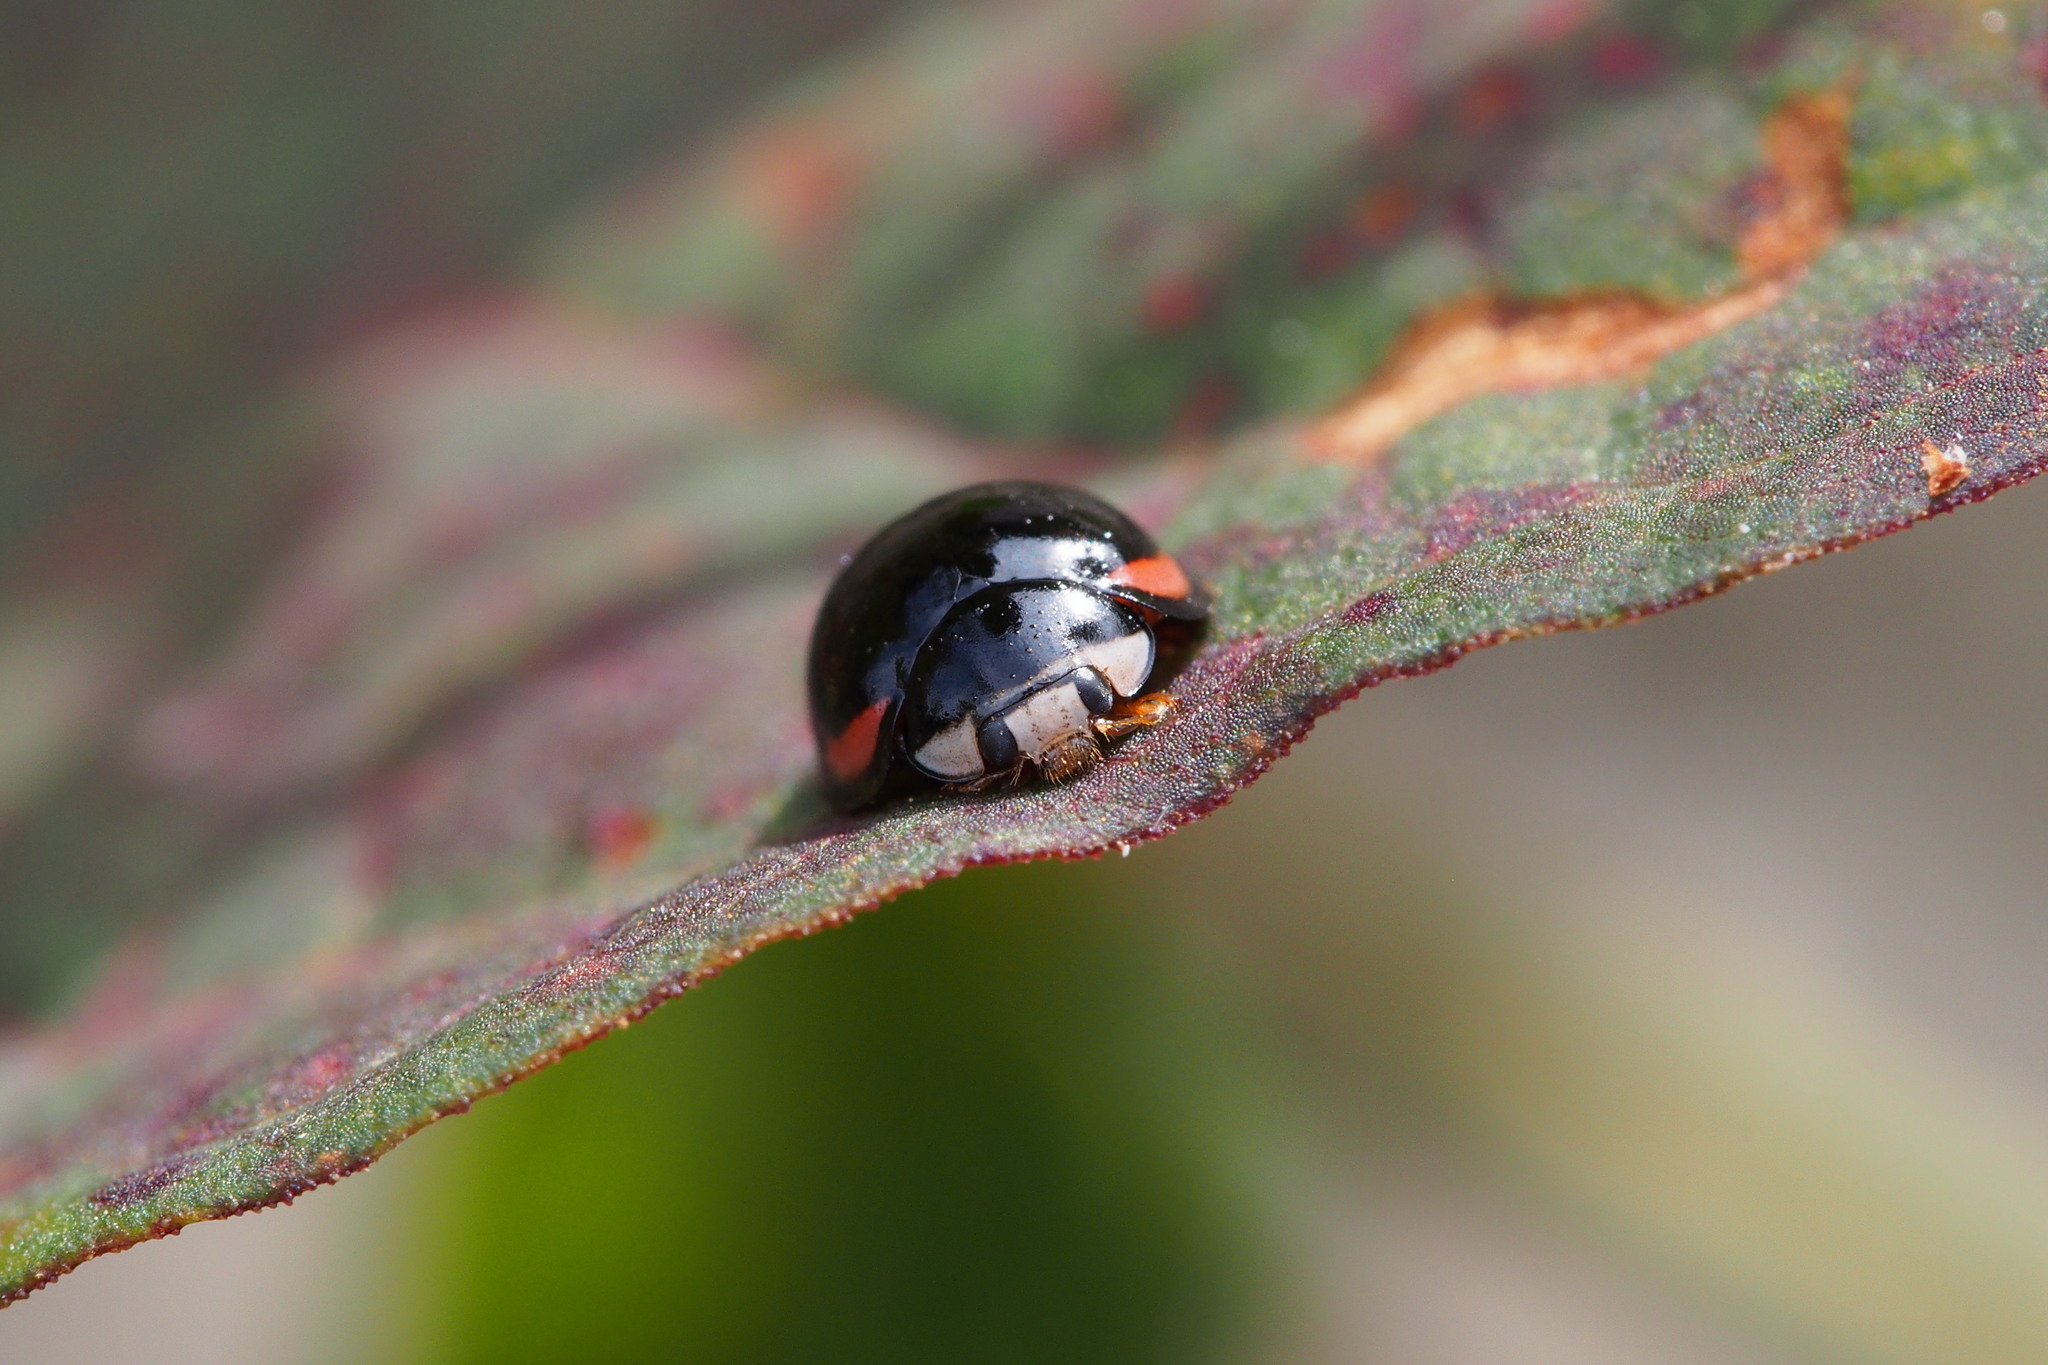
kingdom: Animalia
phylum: Arthropoda
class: Insecta
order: Coleoptera
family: Coccinellidae
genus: Cheilomenes
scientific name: Cheilomenes sexmaculata
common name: Ladybird beetle
